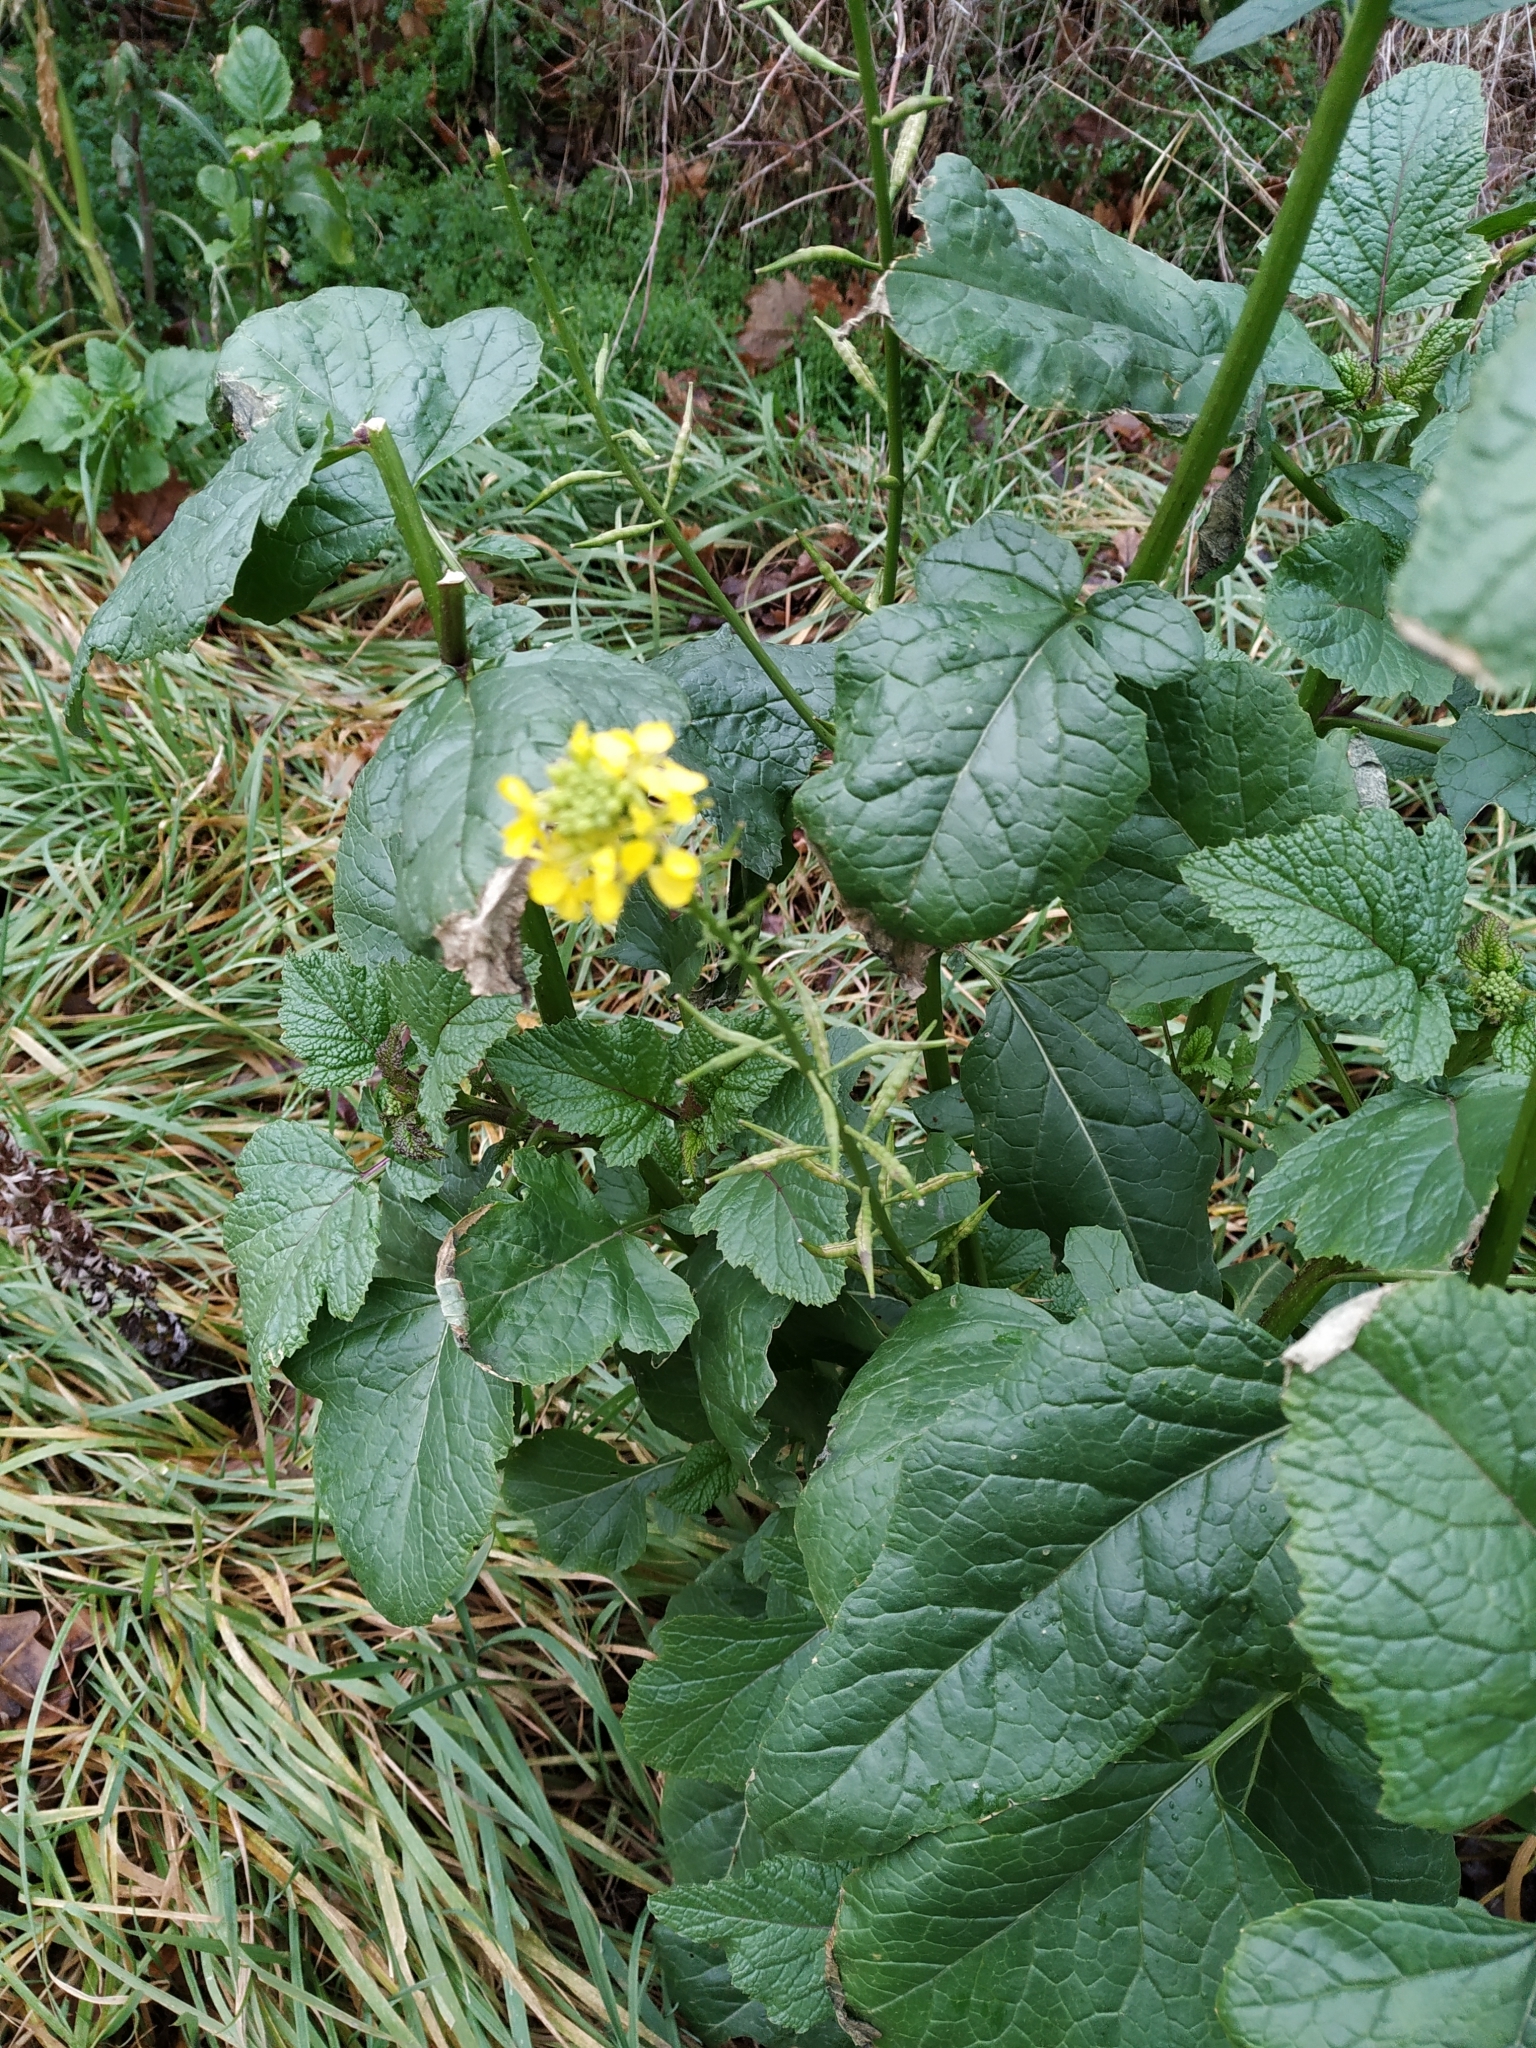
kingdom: Plantae
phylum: Tracheophyta
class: Magnoliopsida
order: Brassicales
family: Brassicaceae
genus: Sinapis
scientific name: Sinapis arvensis
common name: Charlock
